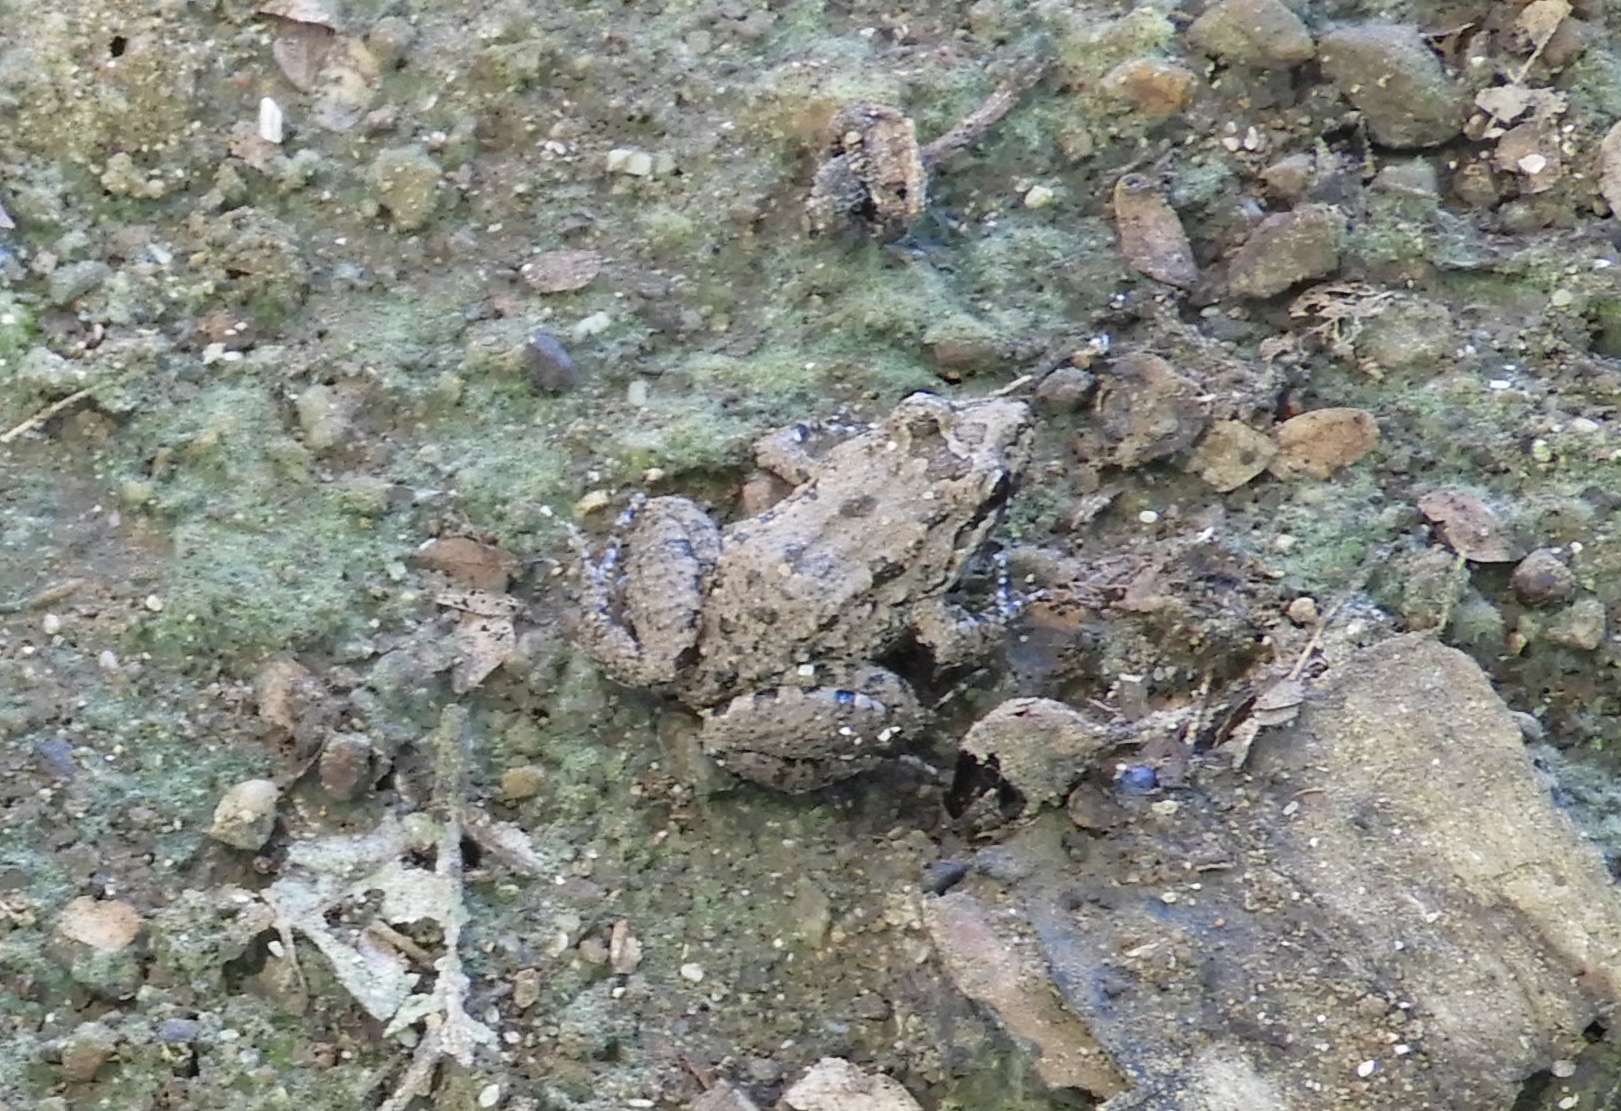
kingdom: Animalia
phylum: Chordata
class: Amphibia
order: Anura
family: Leptodactylidae
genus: Leptodactylus
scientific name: Leptodactylus melanonotus
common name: Fringe-toed foamfrog
